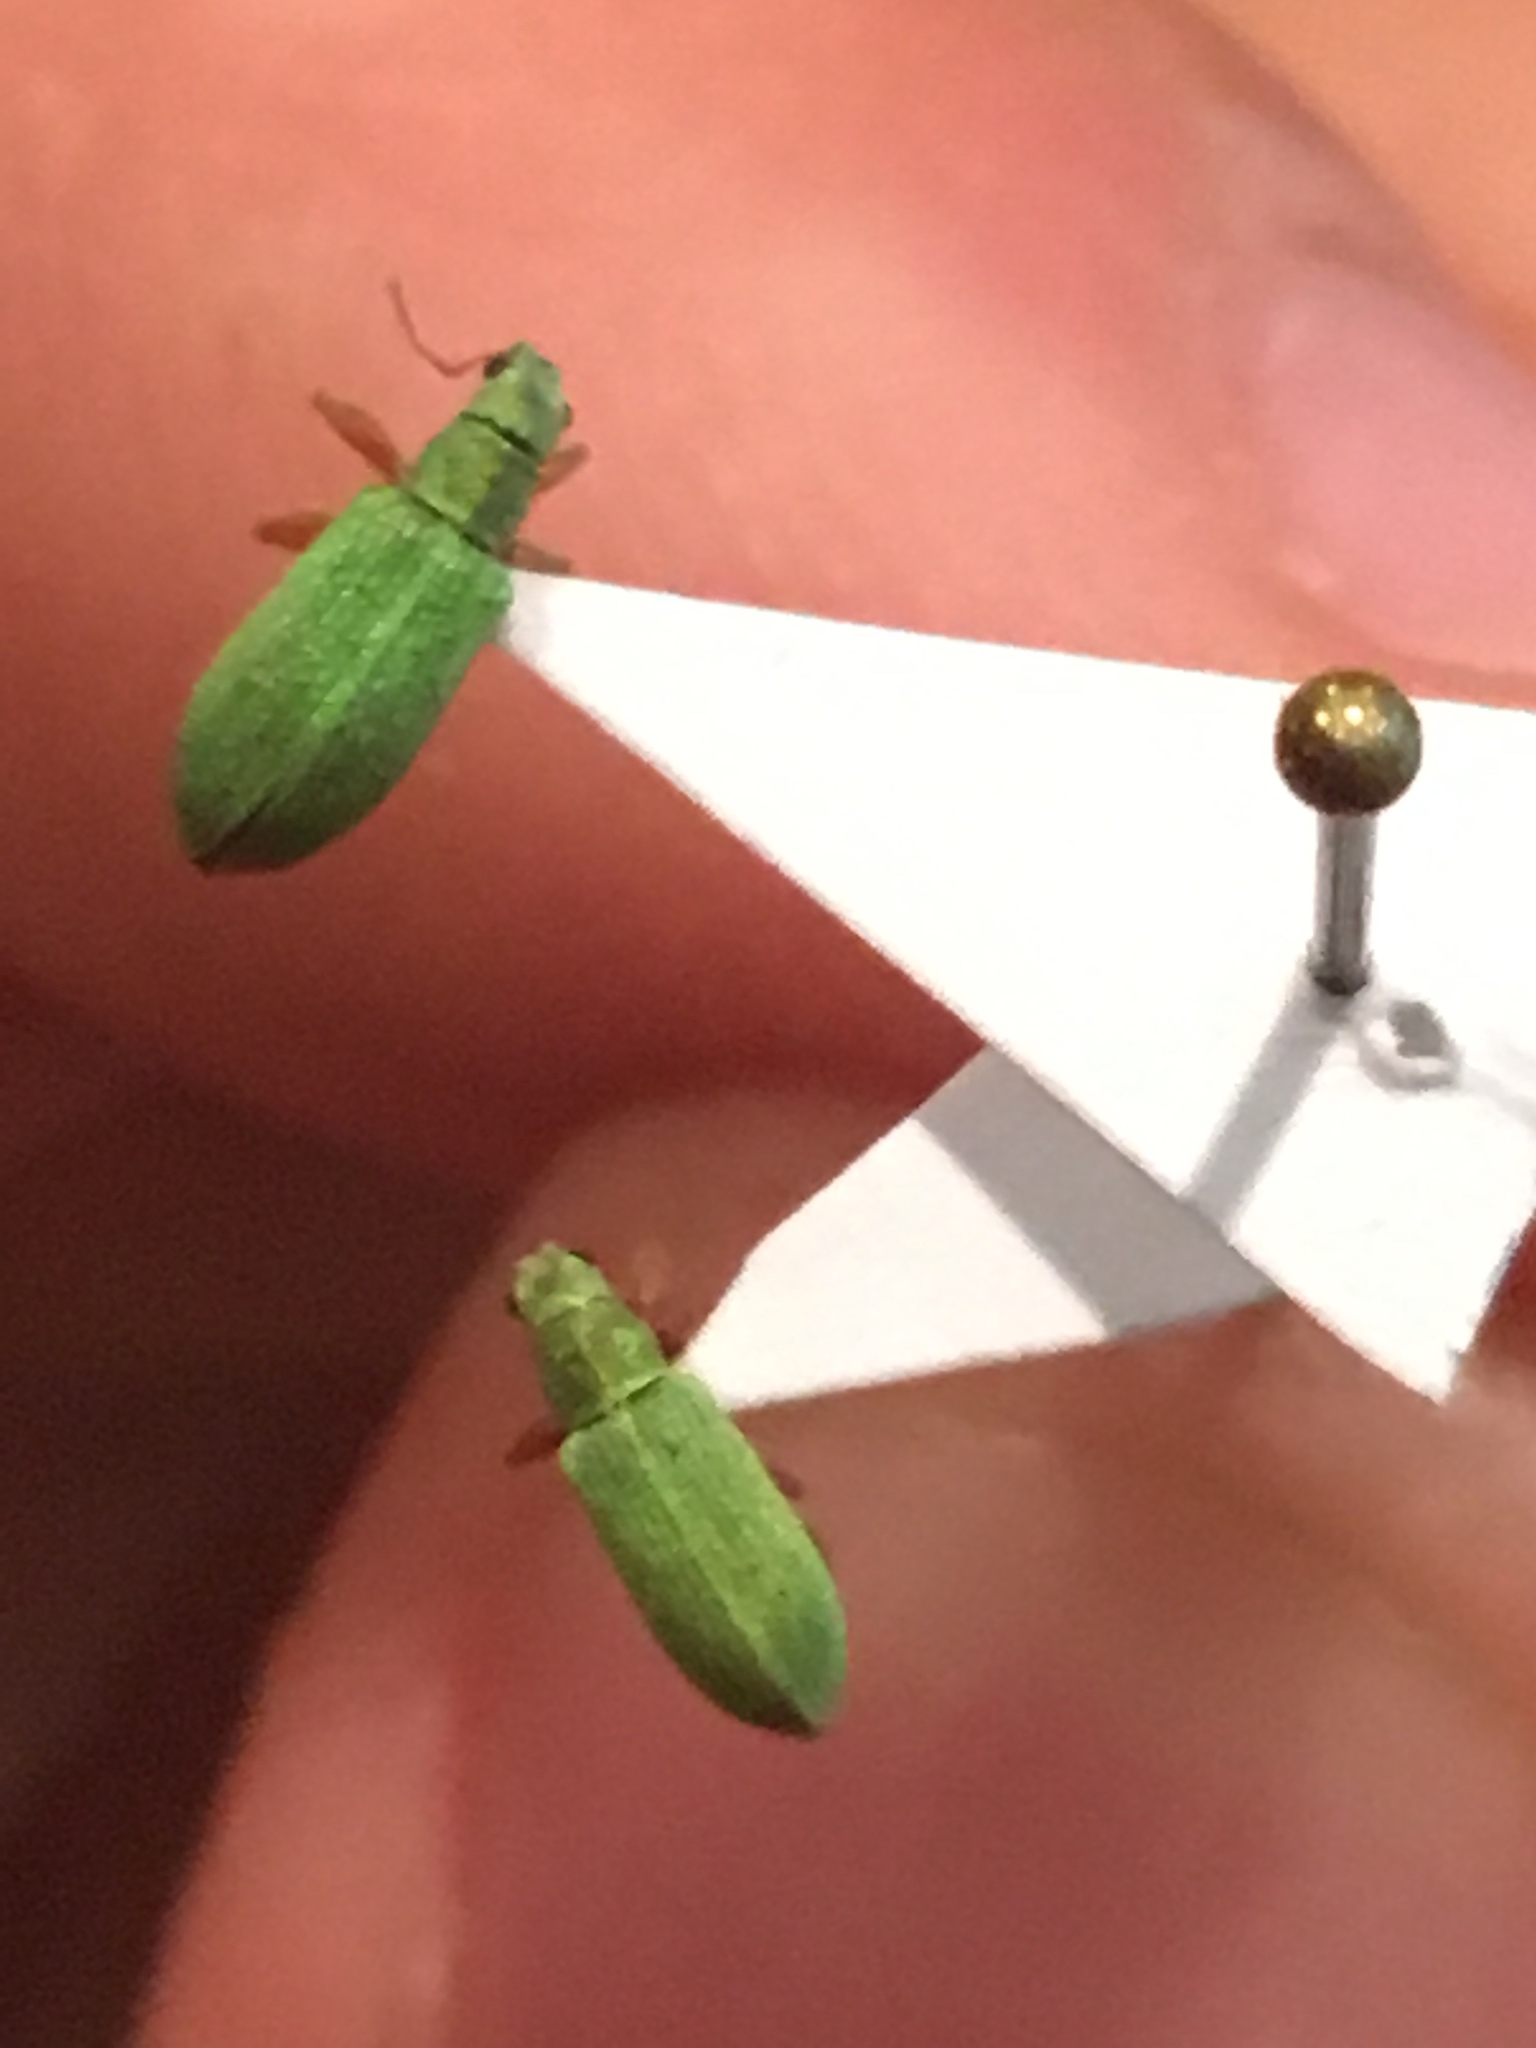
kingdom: Animalia
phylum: Arthropoda
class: Insecta
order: Coleoptera
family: Curculionidae
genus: Polydrusus
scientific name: Polydrusus impressifrons
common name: Weevil
